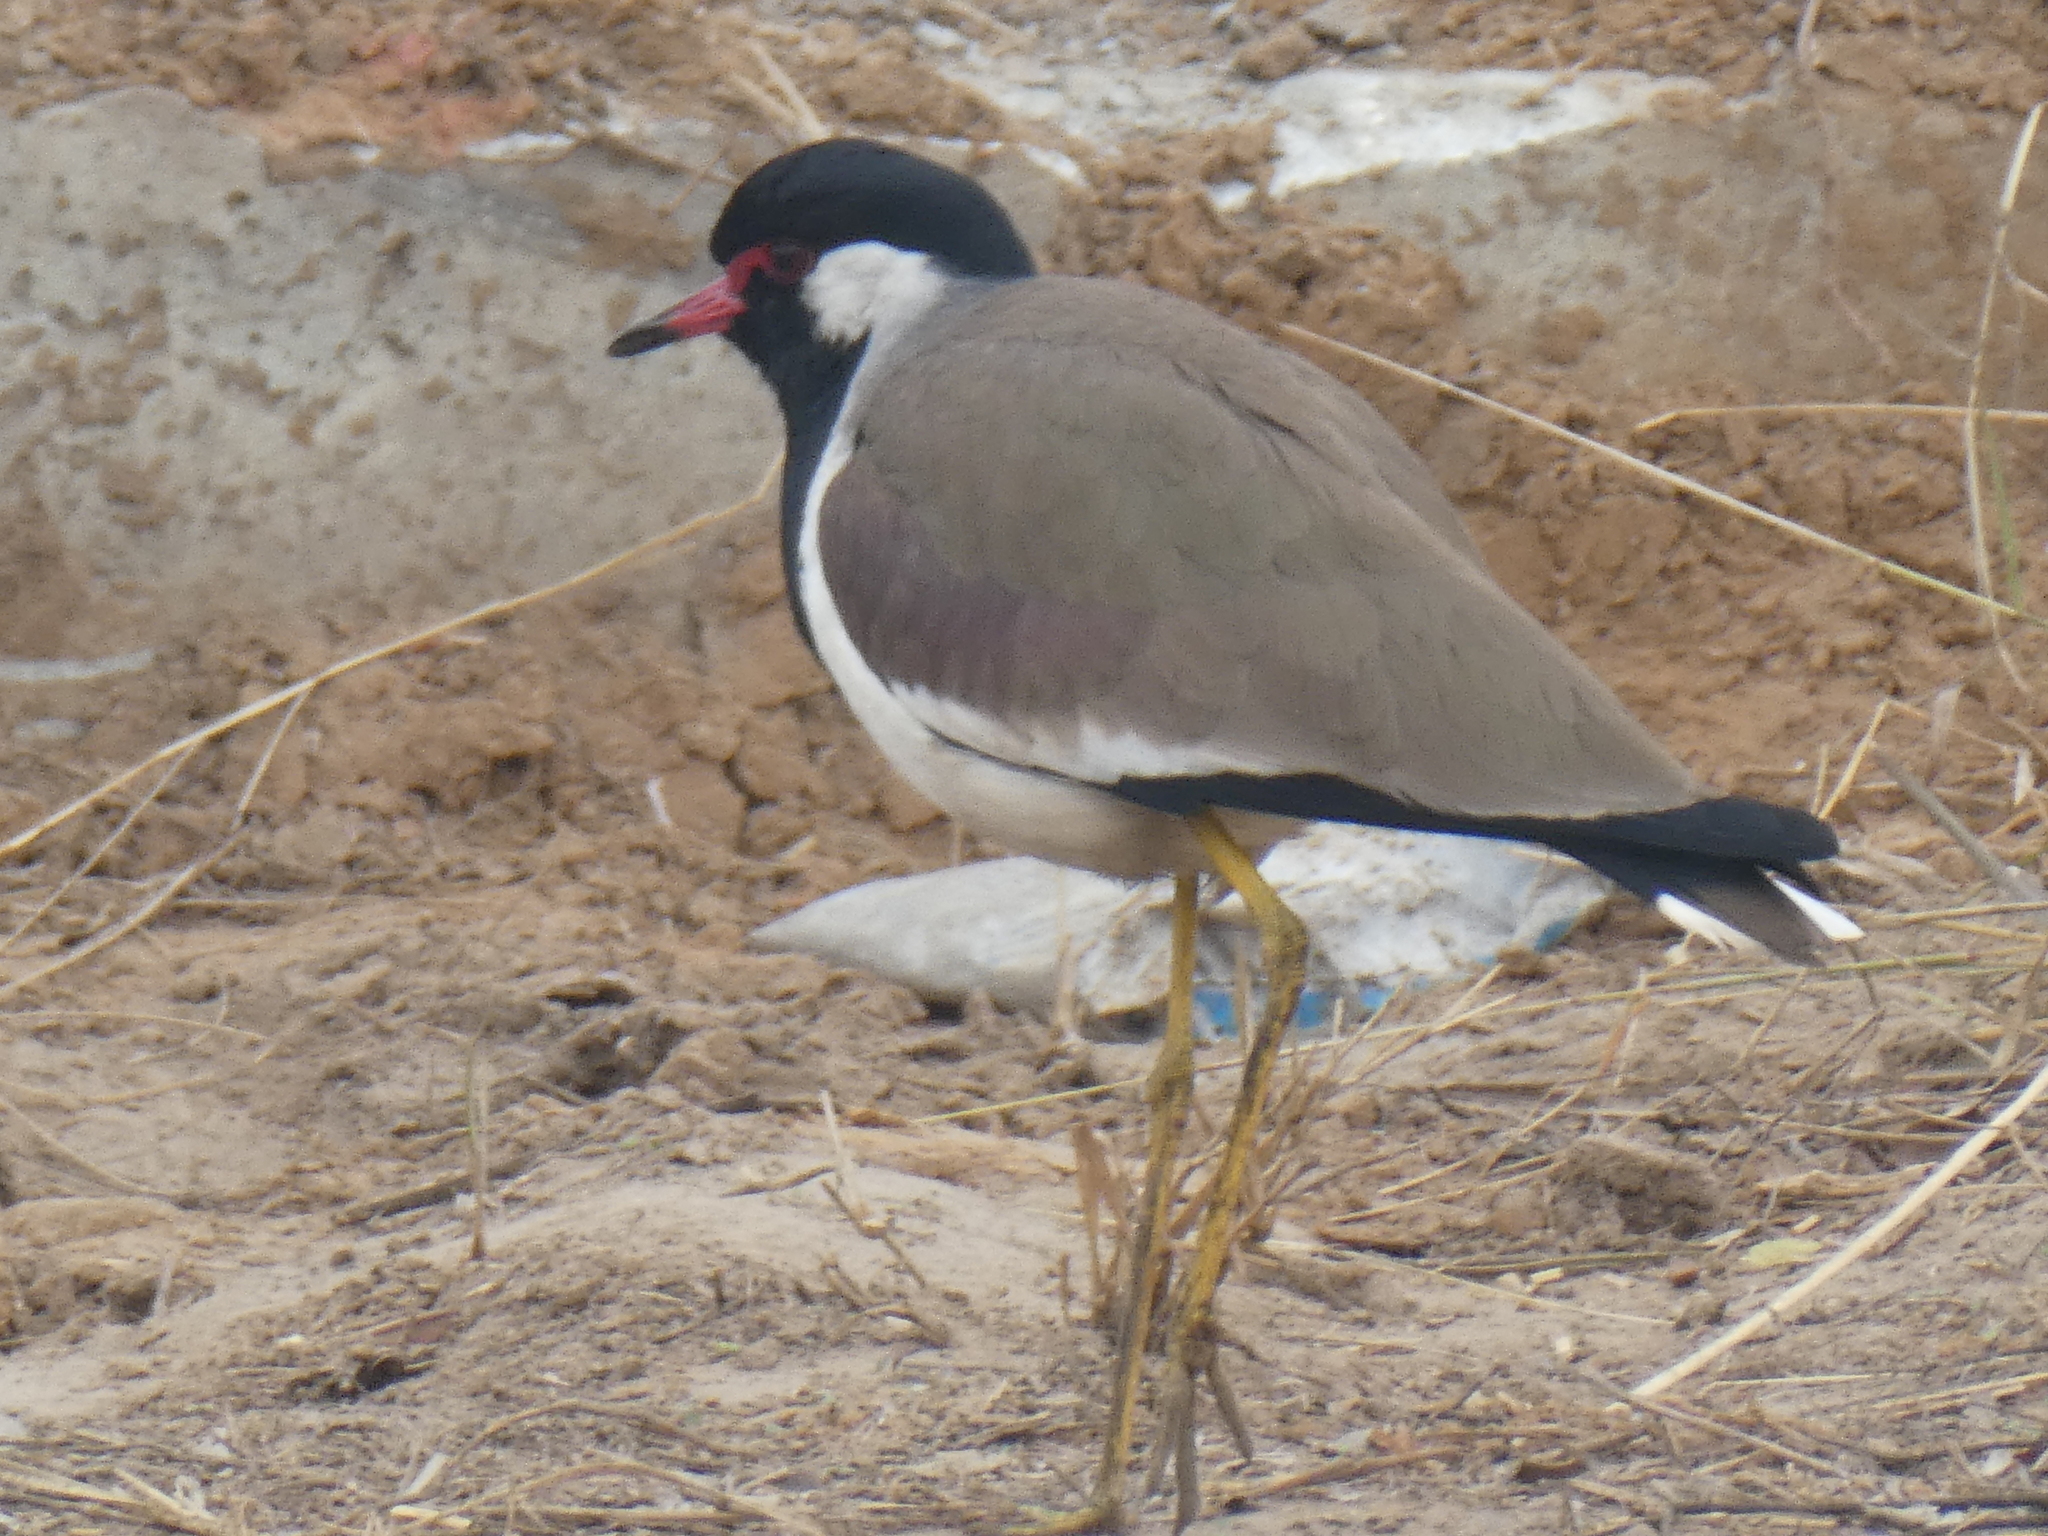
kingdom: Animalia
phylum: Chordata
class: Aves
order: Charadriiformes
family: Charadriidae
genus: Vanellus
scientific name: Vanellus indicus
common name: Red-wattled lapwing
